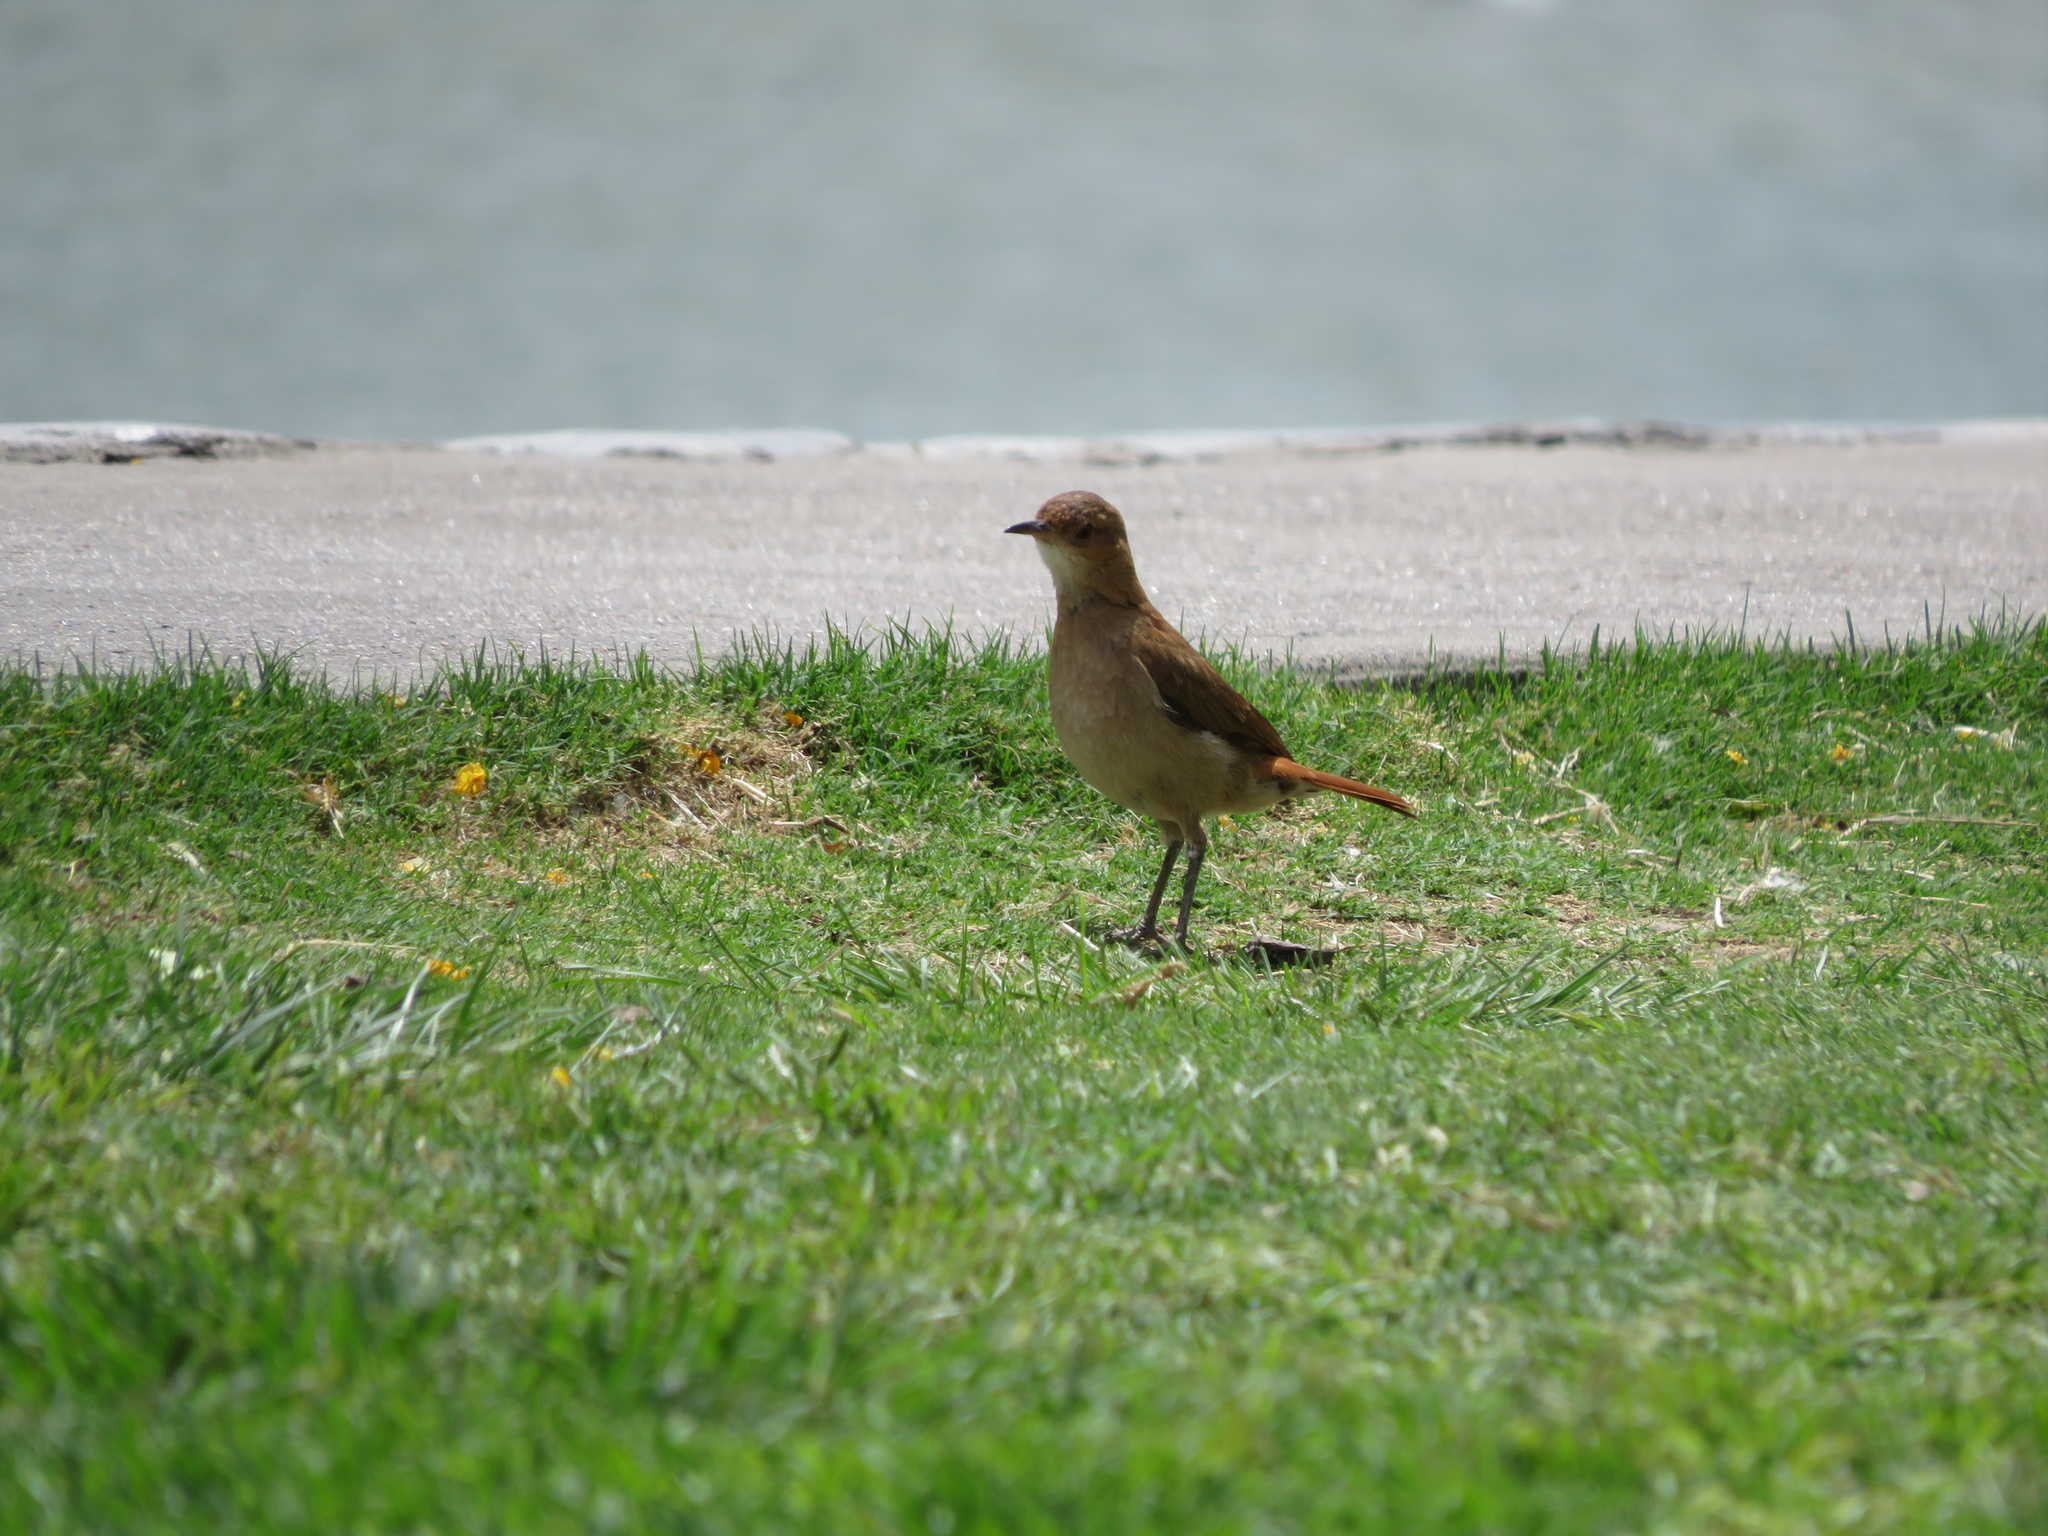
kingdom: Animalia
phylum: Chordata
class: Aves
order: Passeriformes
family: Furnariidae
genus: Furnarius
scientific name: Furnarius rufus
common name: Rufous hornero
